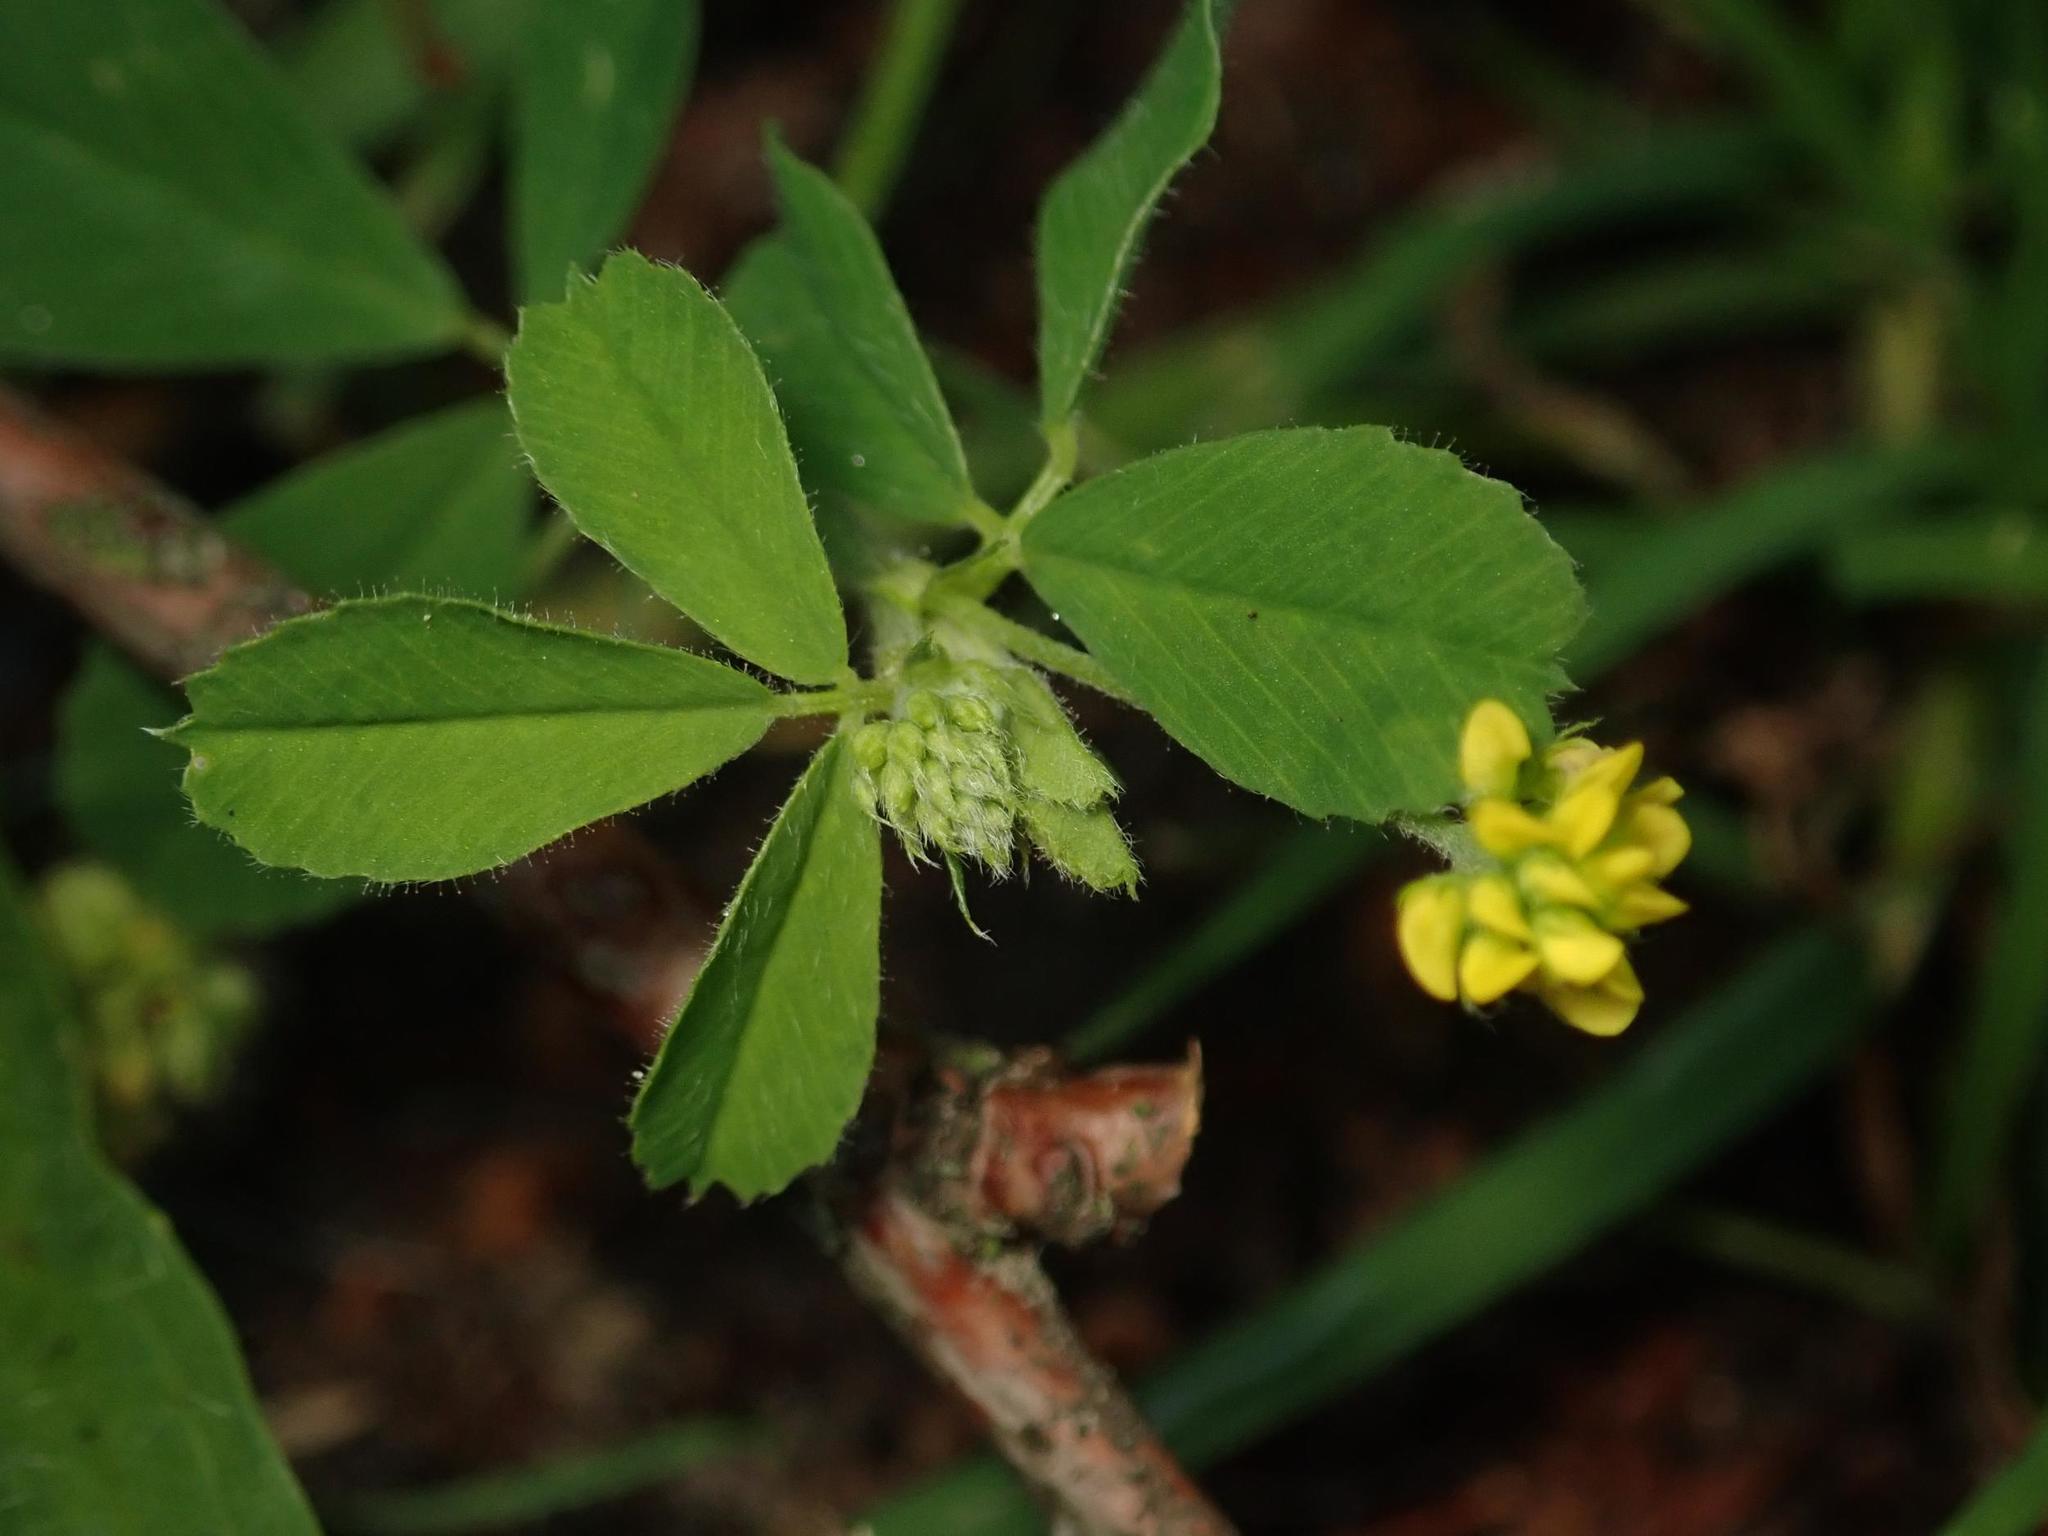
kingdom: Plantae
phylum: Tracheophyta
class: Magnoliopsida
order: Fabales
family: Fabaceae
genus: Medicago
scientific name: Medicago lupulina
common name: Black medick
